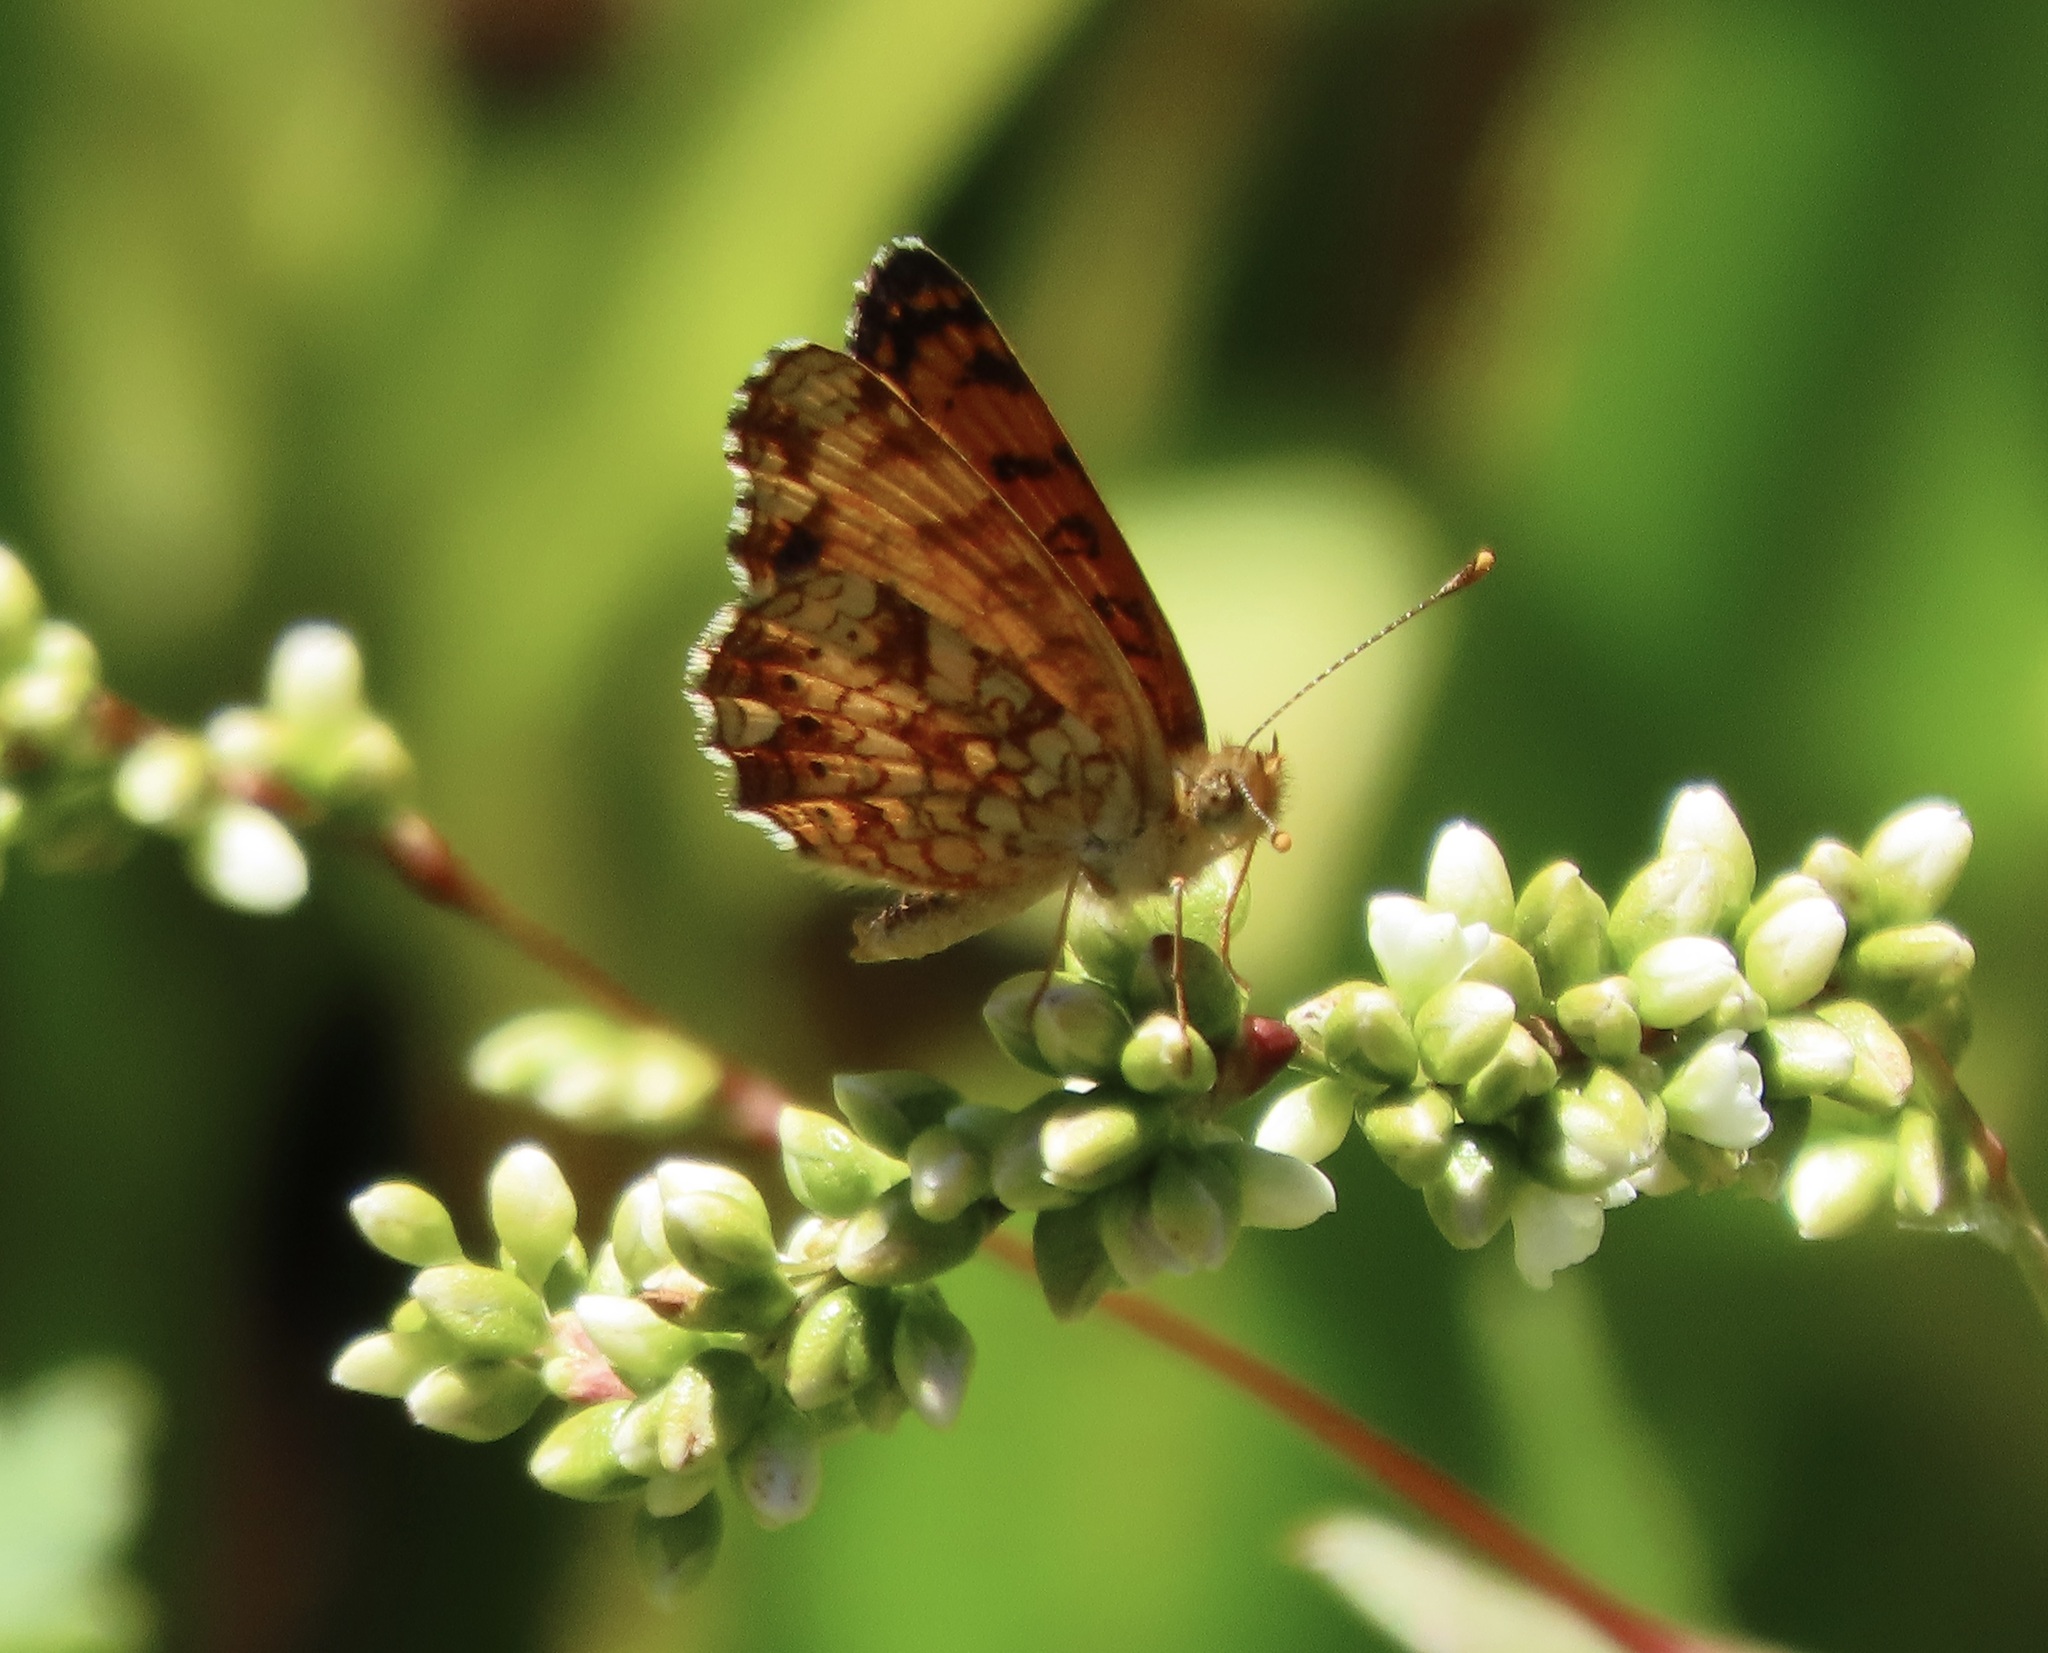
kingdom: Animalia
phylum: Arthropoda
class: Insecta
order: Lepidoptera
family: Nymphalidae
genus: Eresia
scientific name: Eresia aveyrona
